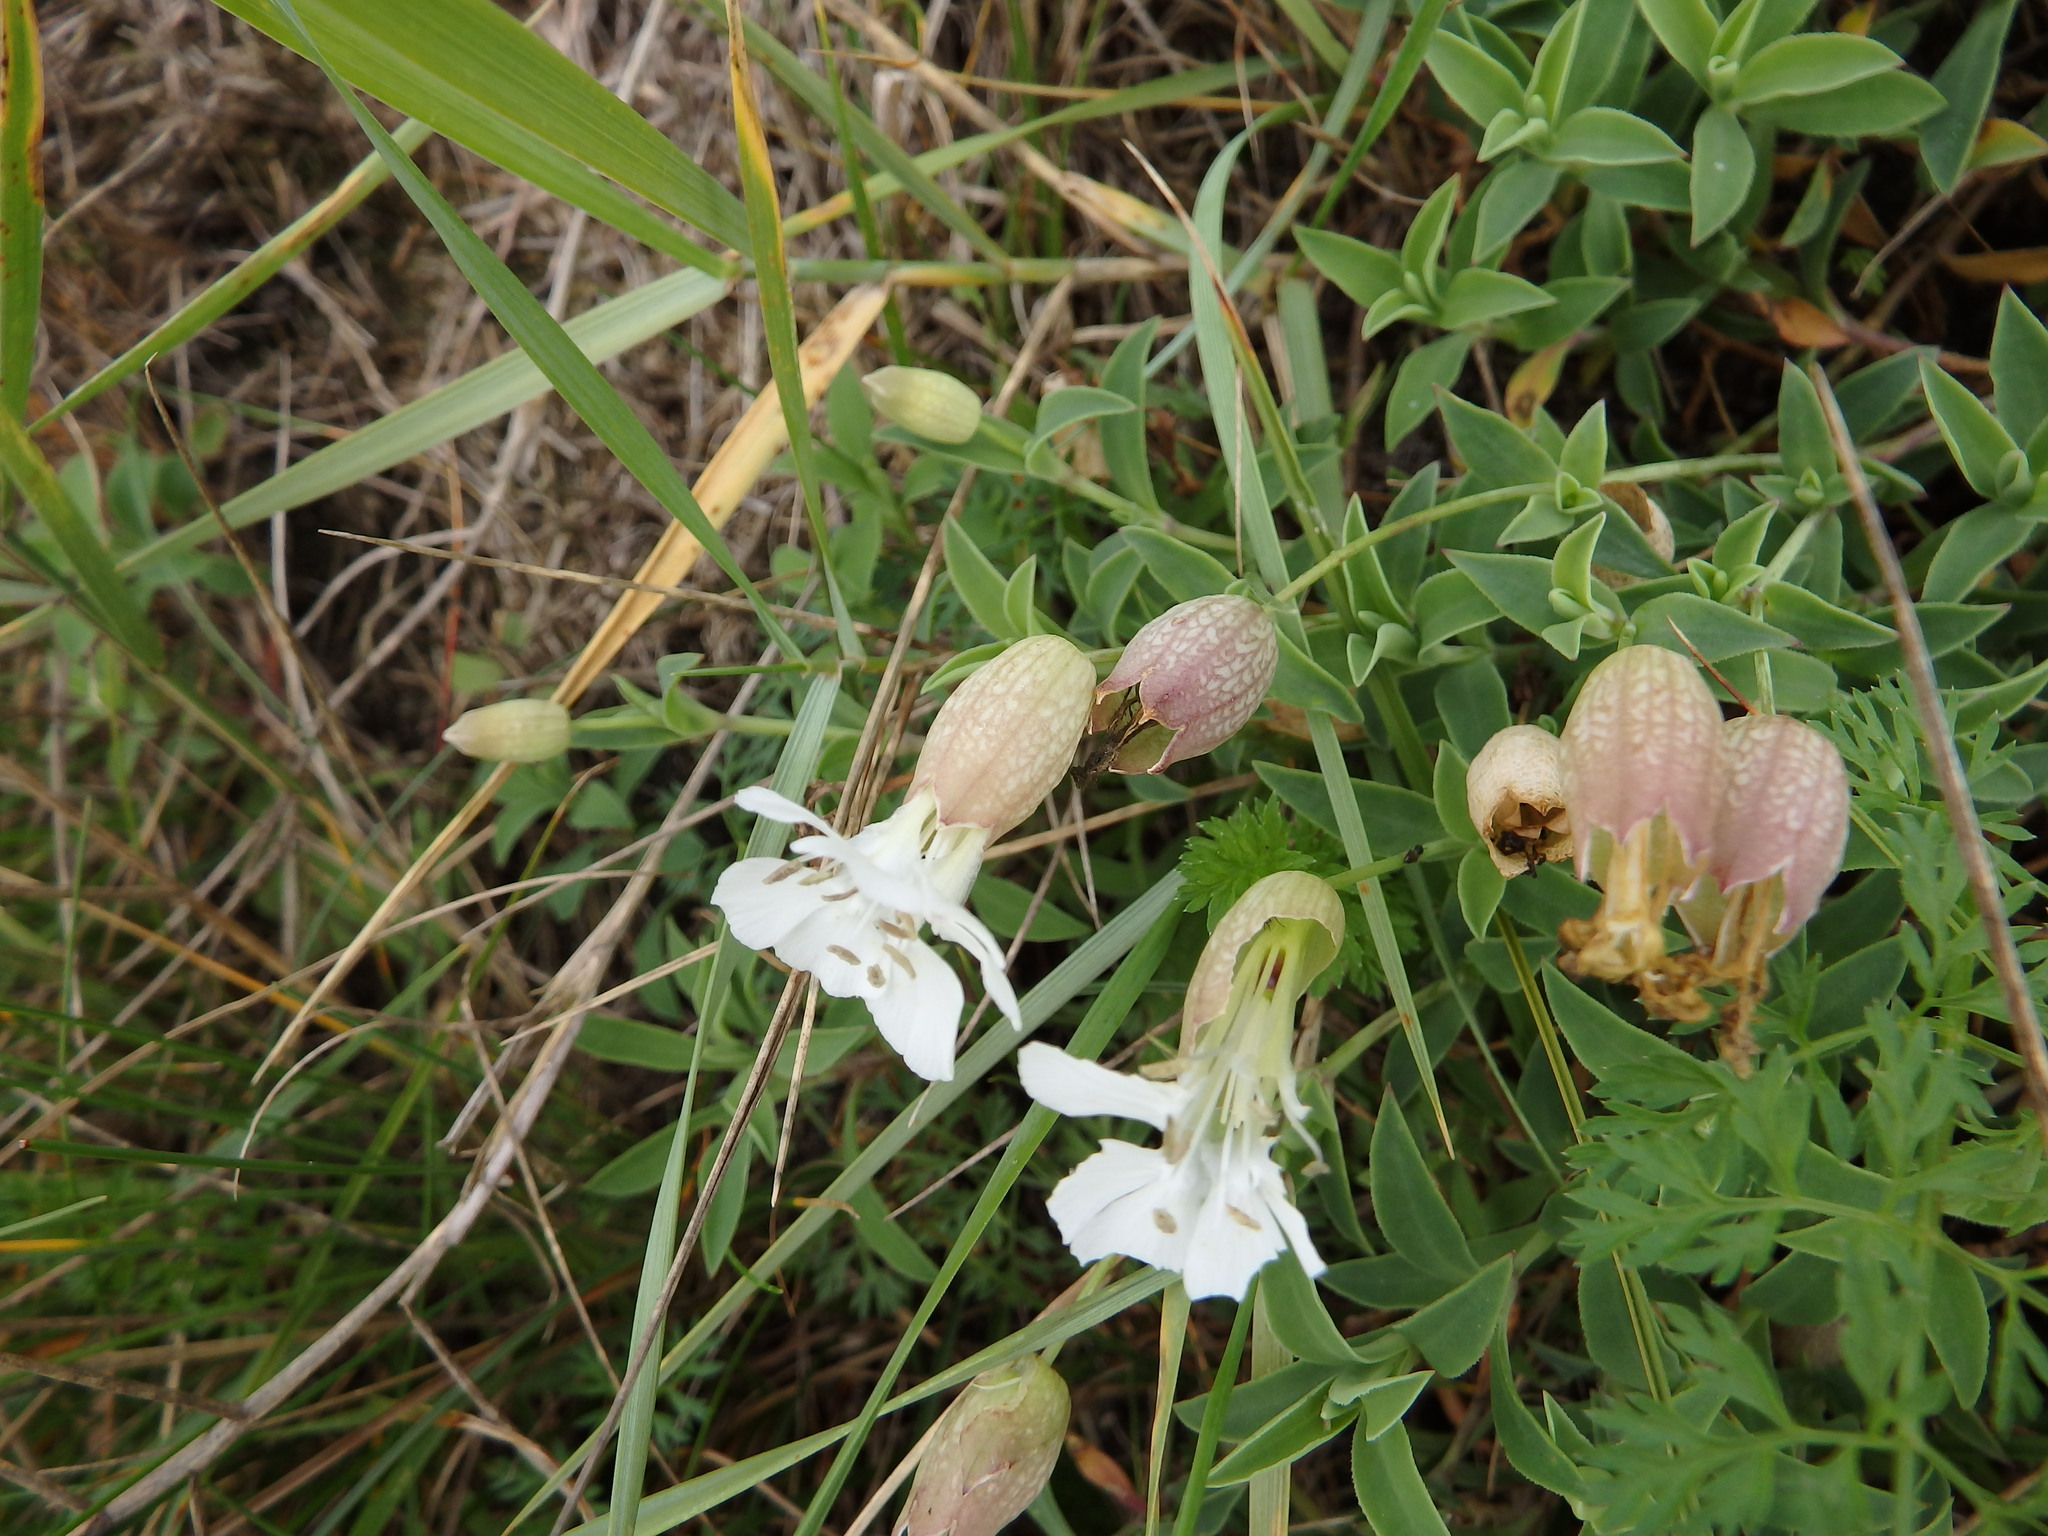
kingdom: Plantae
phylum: Tracheophyta
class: Magnoliopsida
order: Caryophyllales
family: Caryophyllaceae
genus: Silene
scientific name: Silene uniflora
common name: Sea campion
